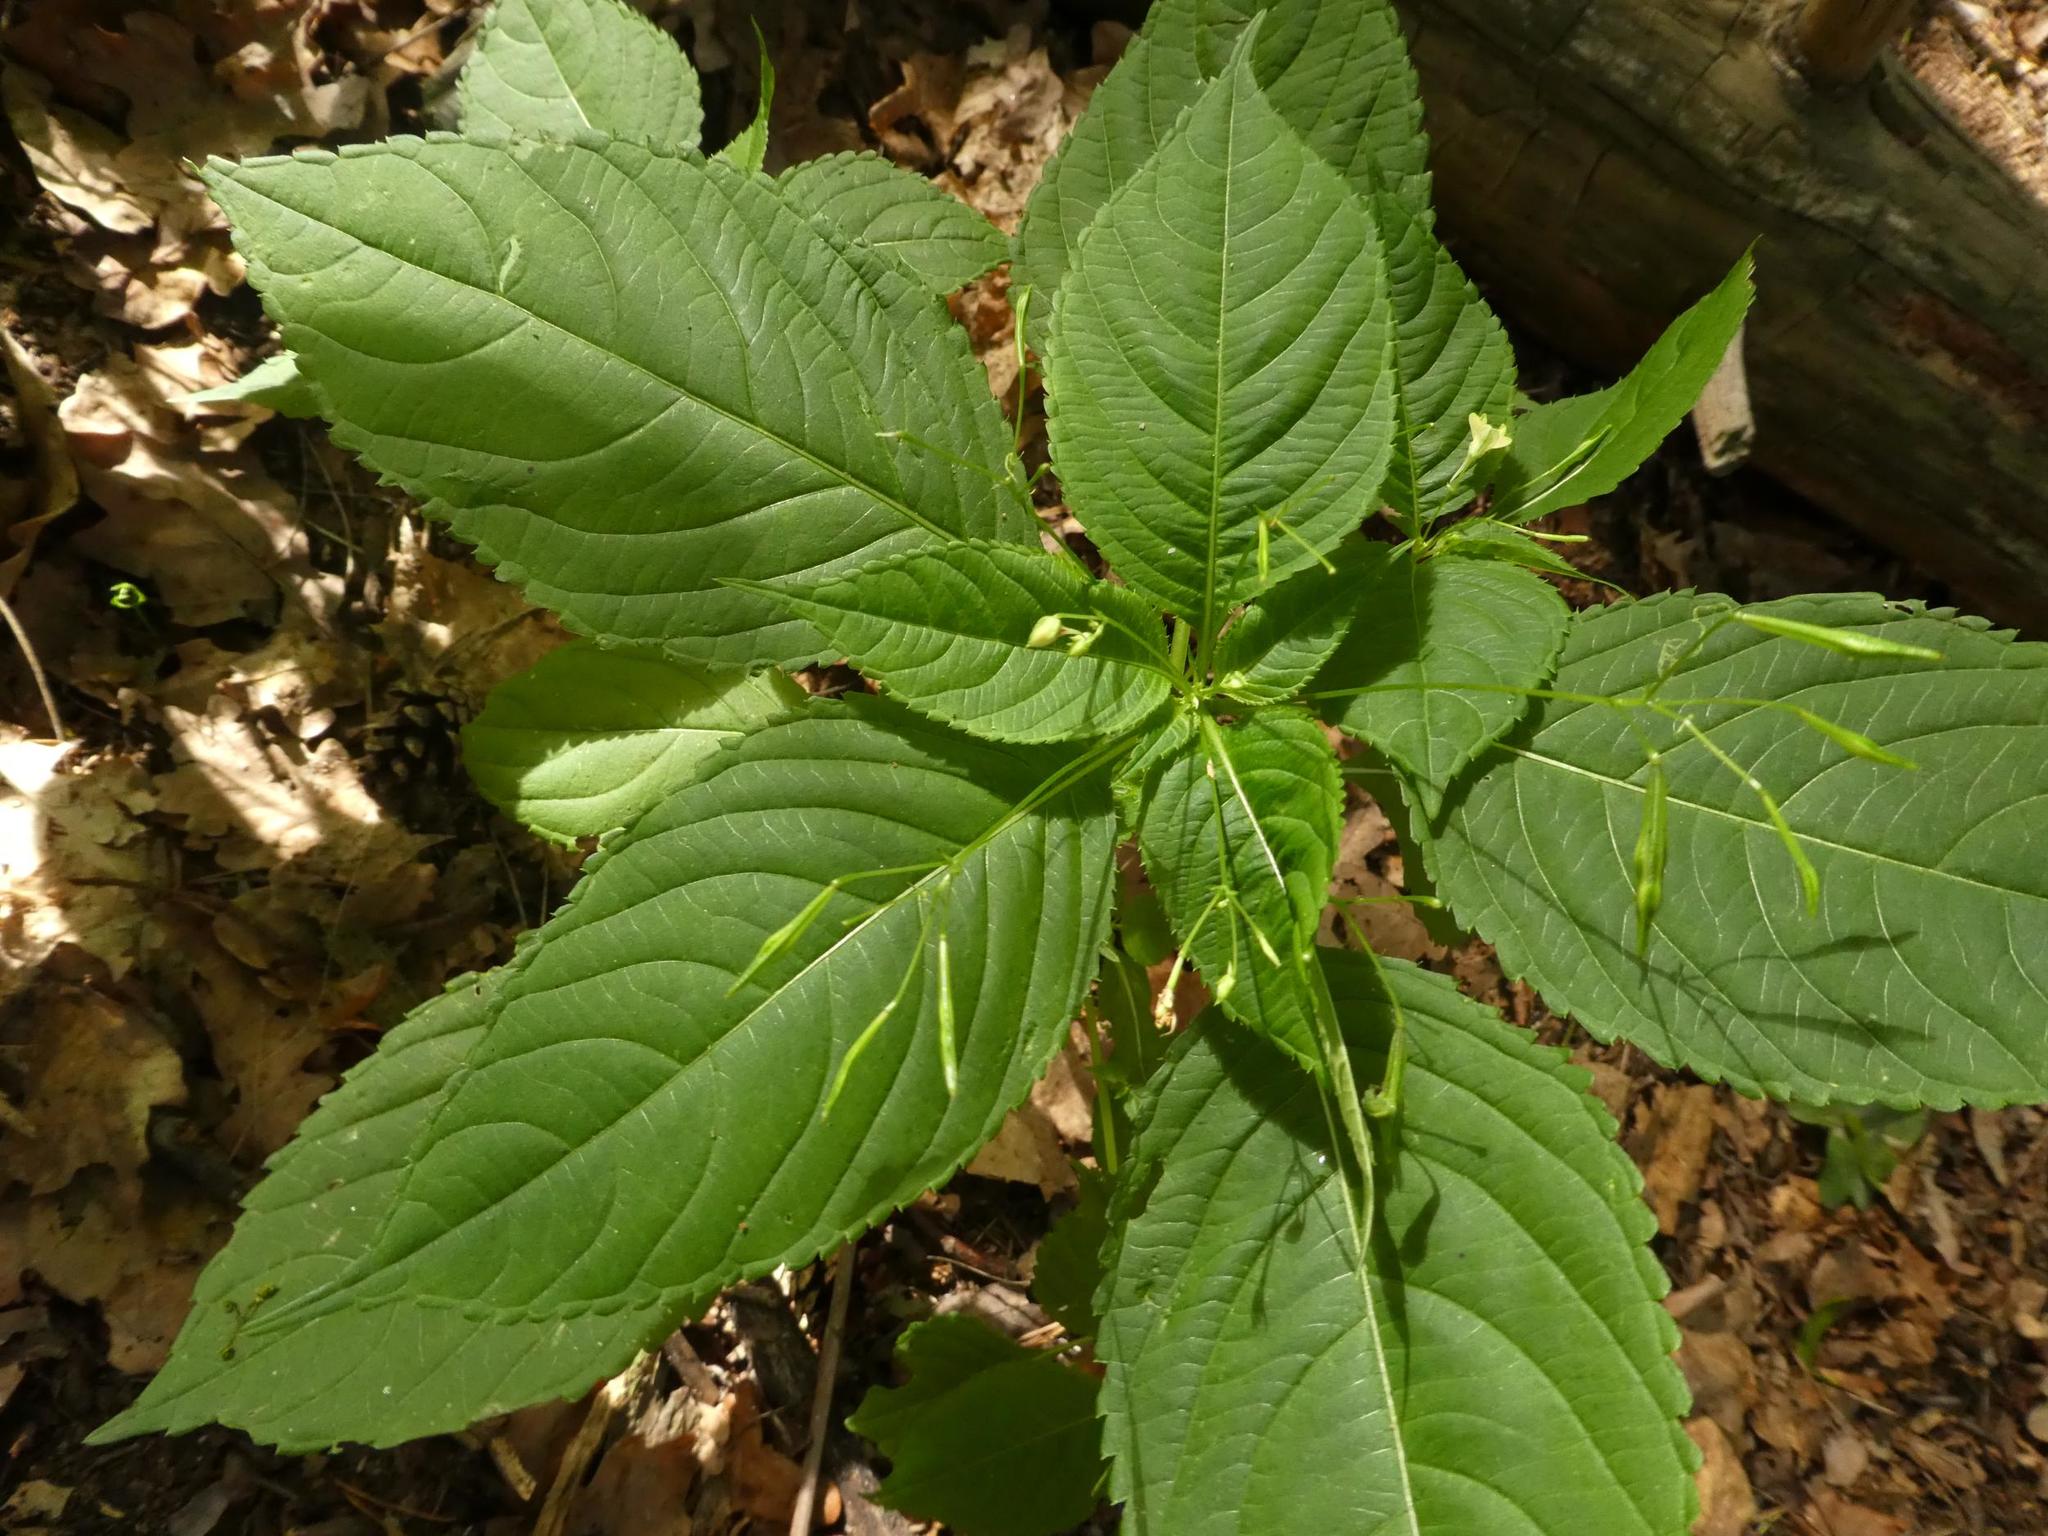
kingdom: Plantae
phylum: Tracheophyta
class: Magnoliopsida
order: Ericales
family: Balsaminaceae
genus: Impatiens
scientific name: Impatiens parviflora
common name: Small balsam
